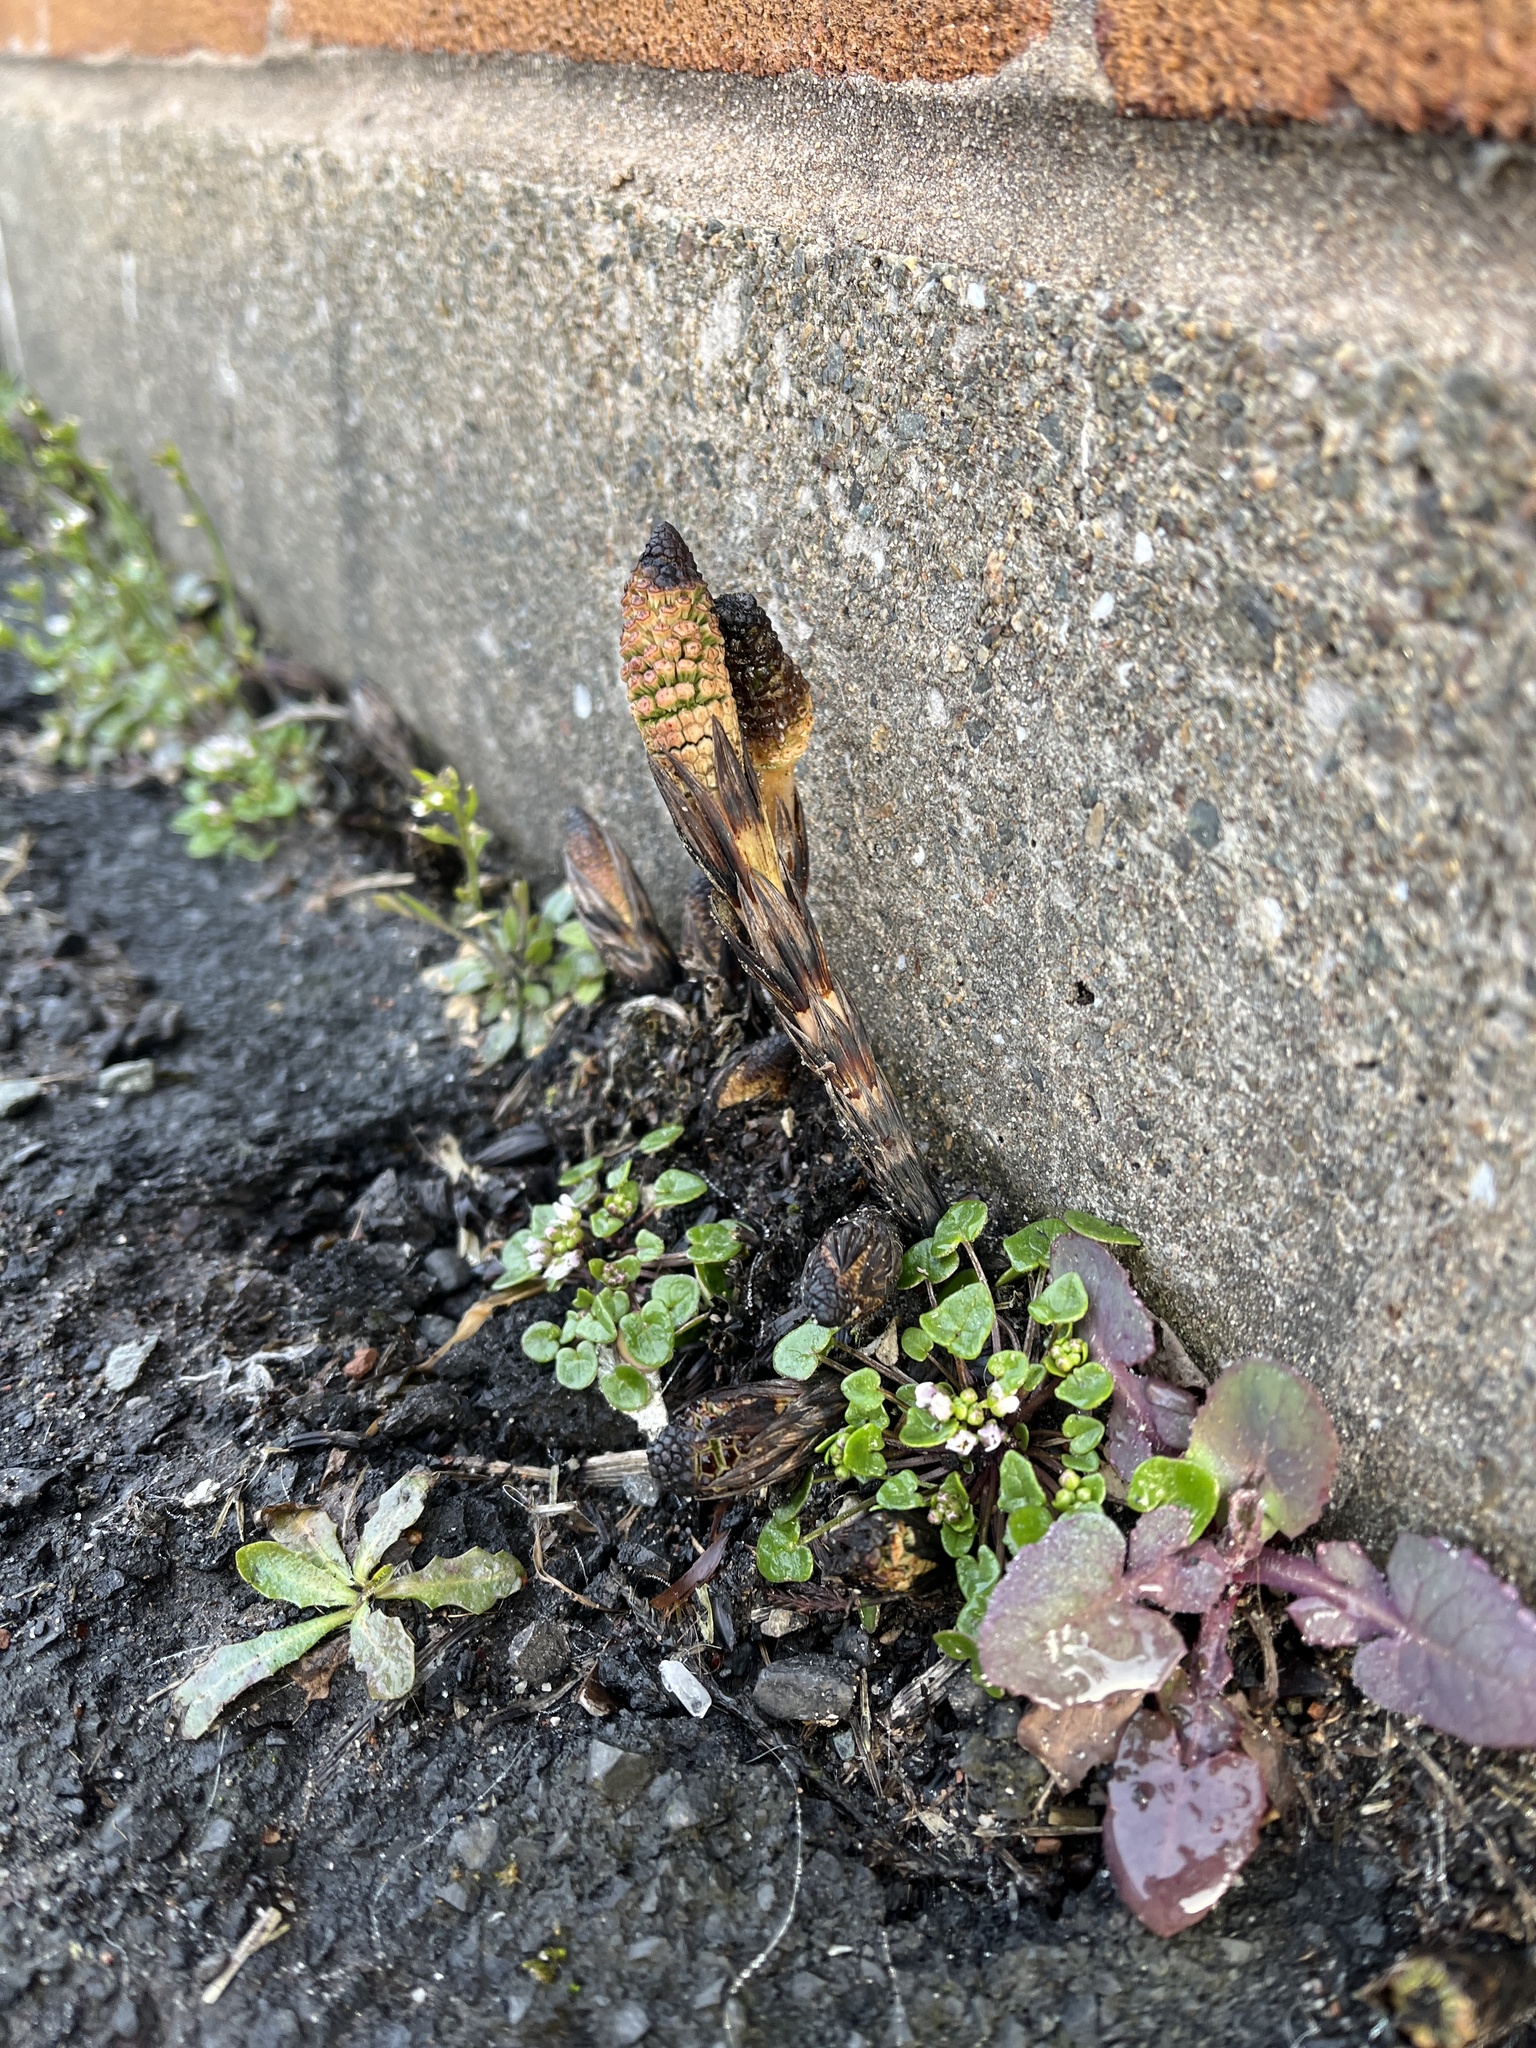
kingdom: Plantae
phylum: Tracheophyta
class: Polypodiopsida
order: Equisetales
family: Equisetaceae
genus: Equisetum
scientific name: Equisetum arvense
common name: Field horsetail
